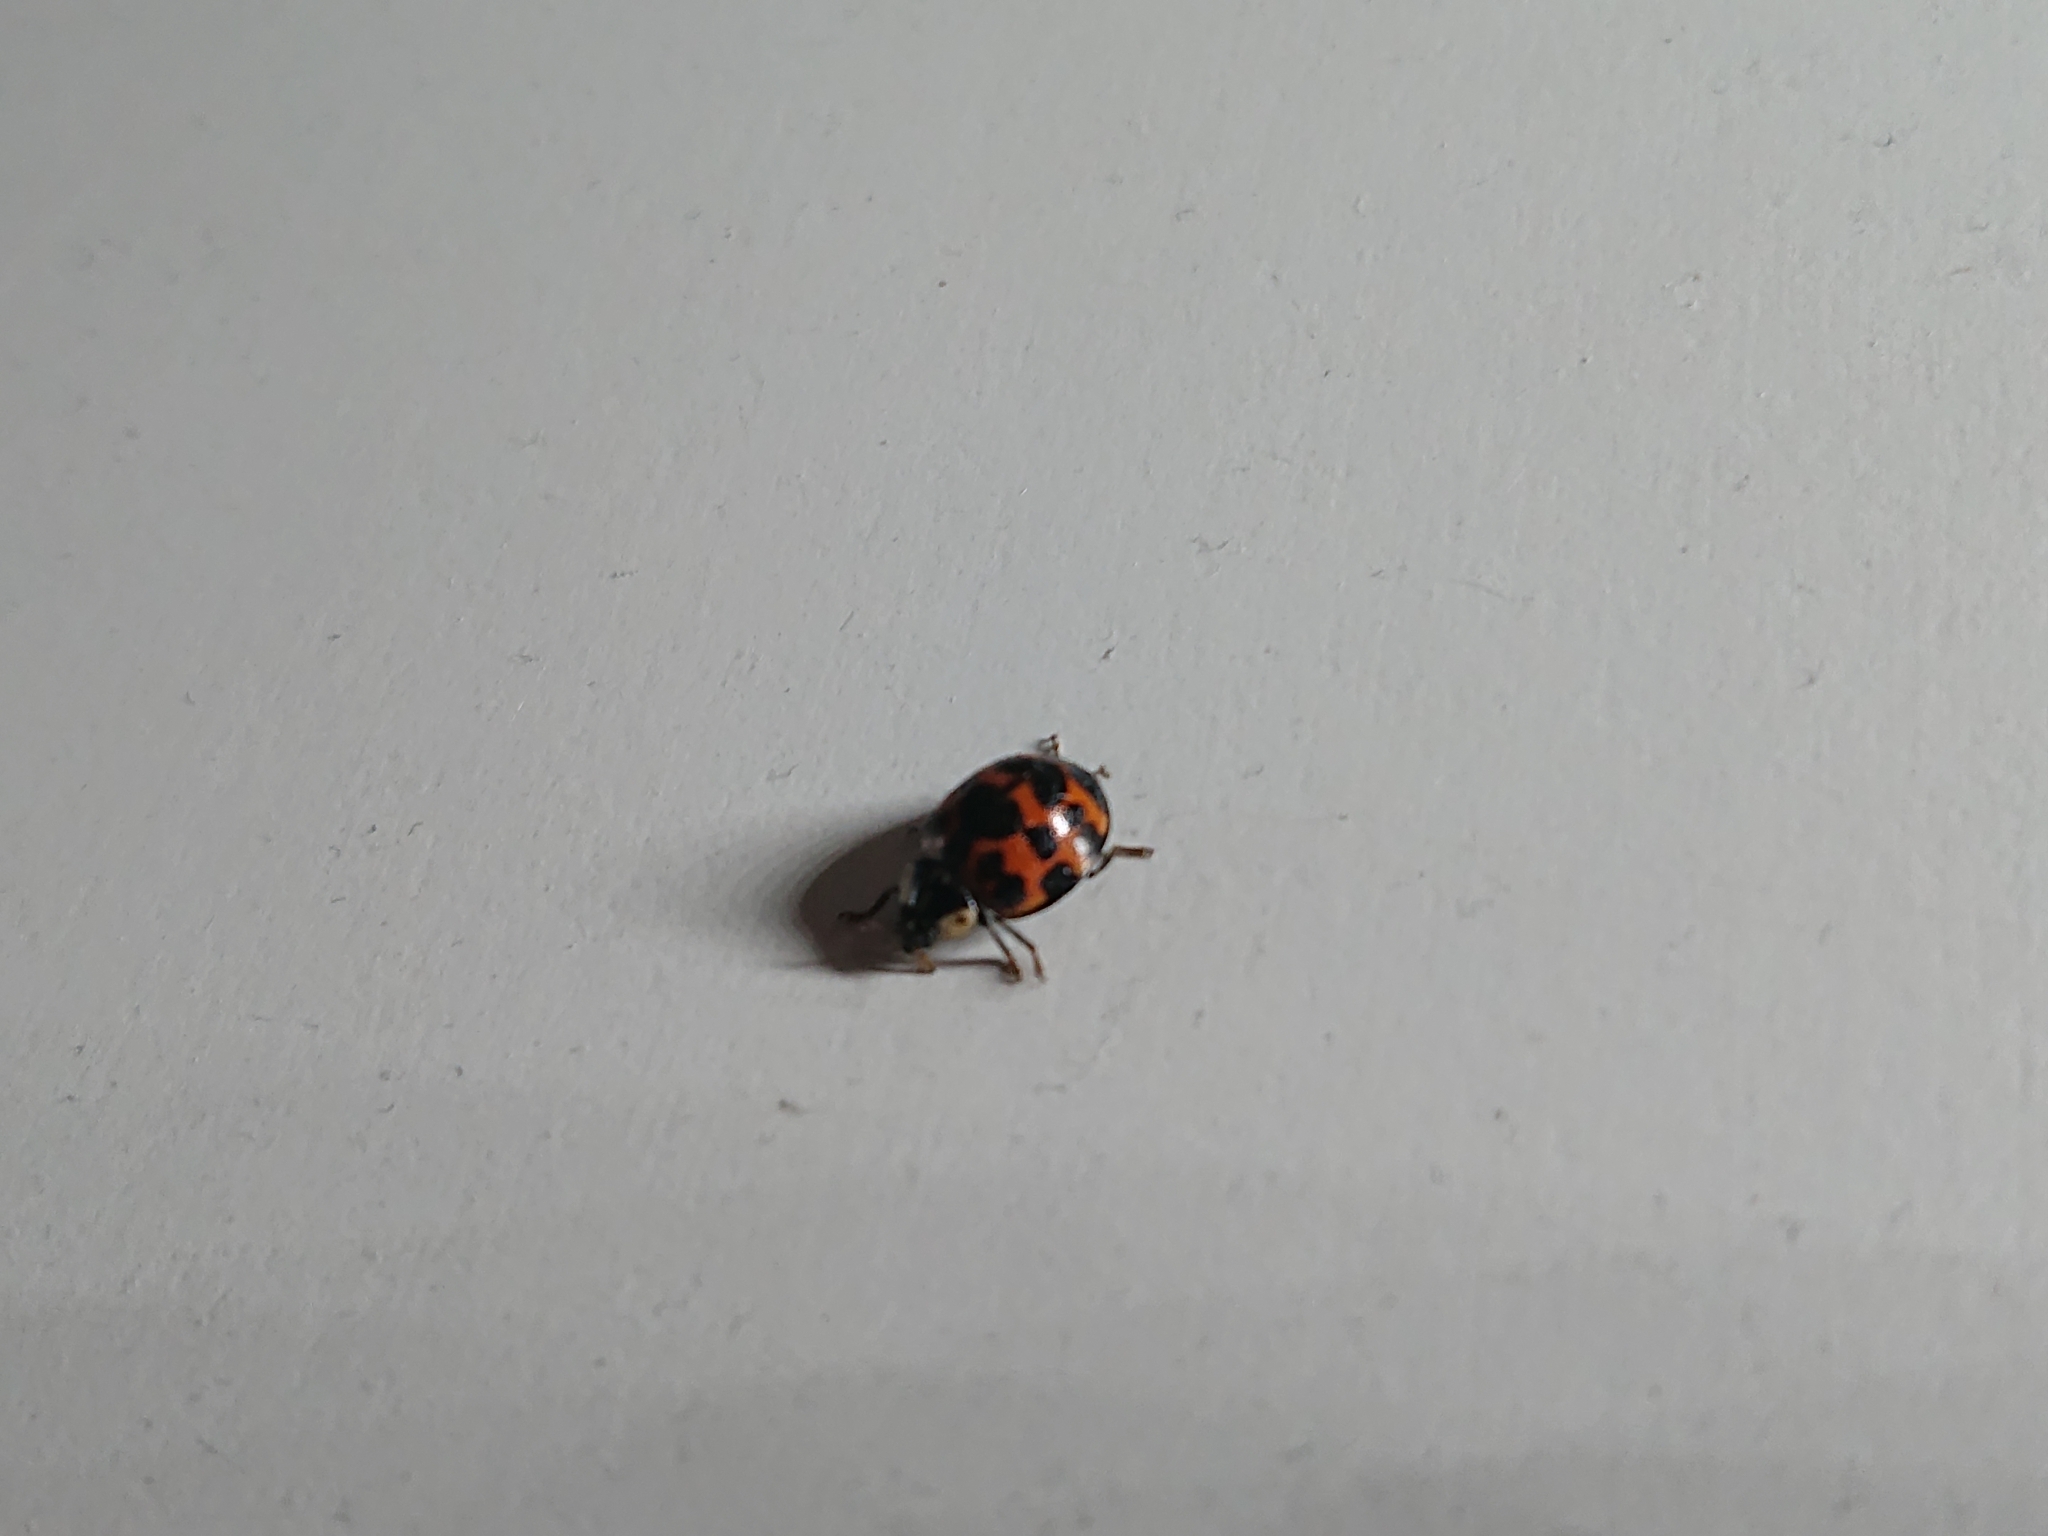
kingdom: Animalia
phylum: Arthropoda
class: Insecta
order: Coleoptera
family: Coccinellidae
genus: Harmonia
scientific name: Harmonia axyridis
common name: Harlequin ladybird
